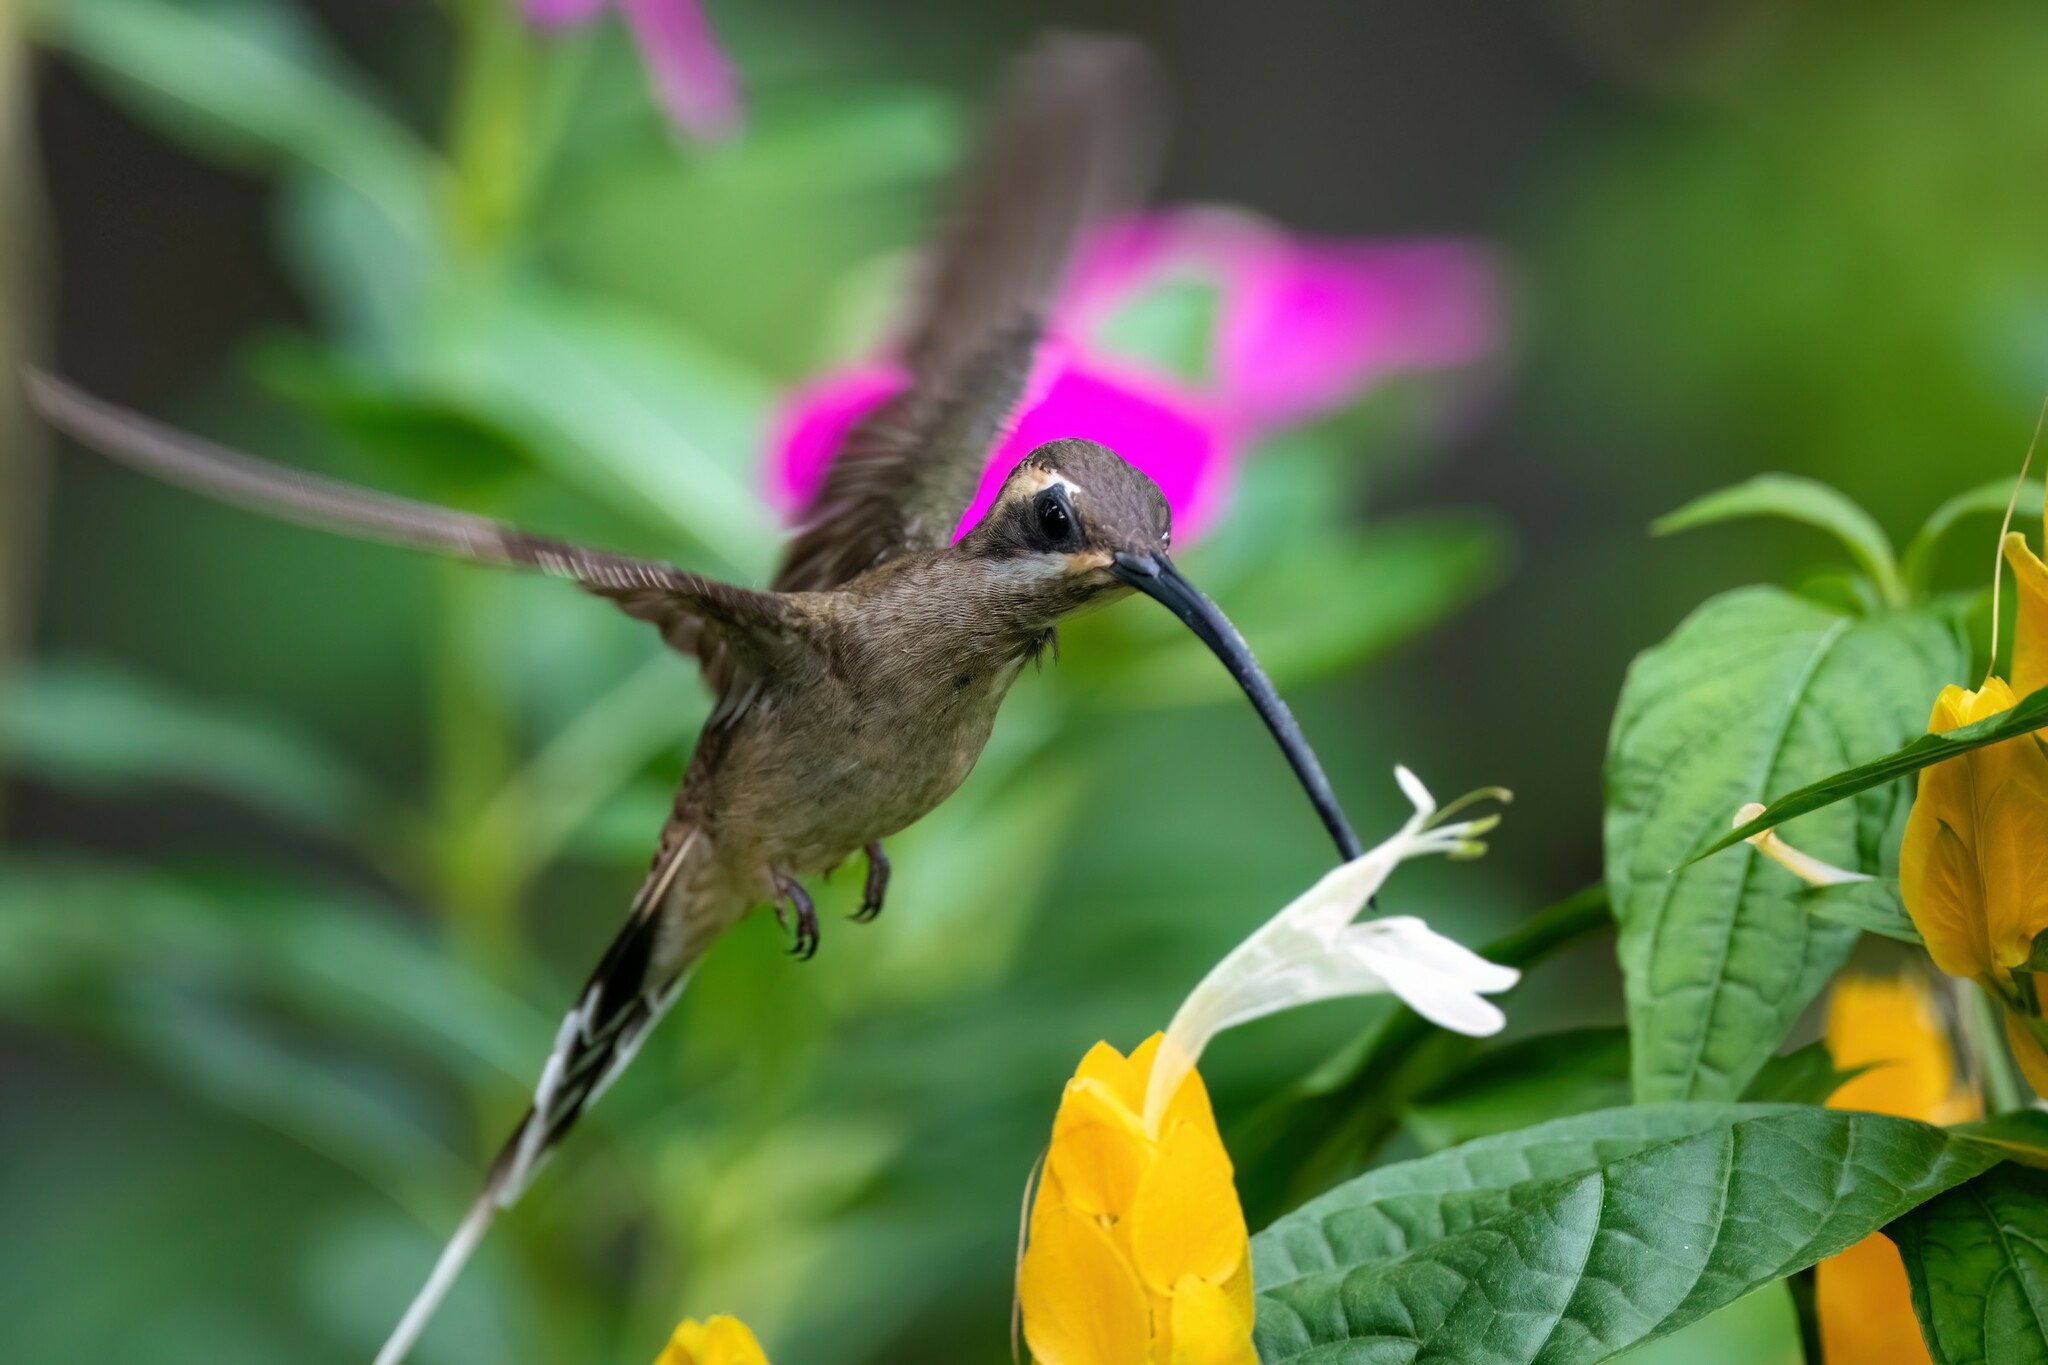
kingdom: Animalia
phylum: Chordata
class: Aves
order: Apodiformes
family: Trochilidae
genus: Phaethornis
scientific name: Phaethornis mexicanus
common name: Mexican hermit
